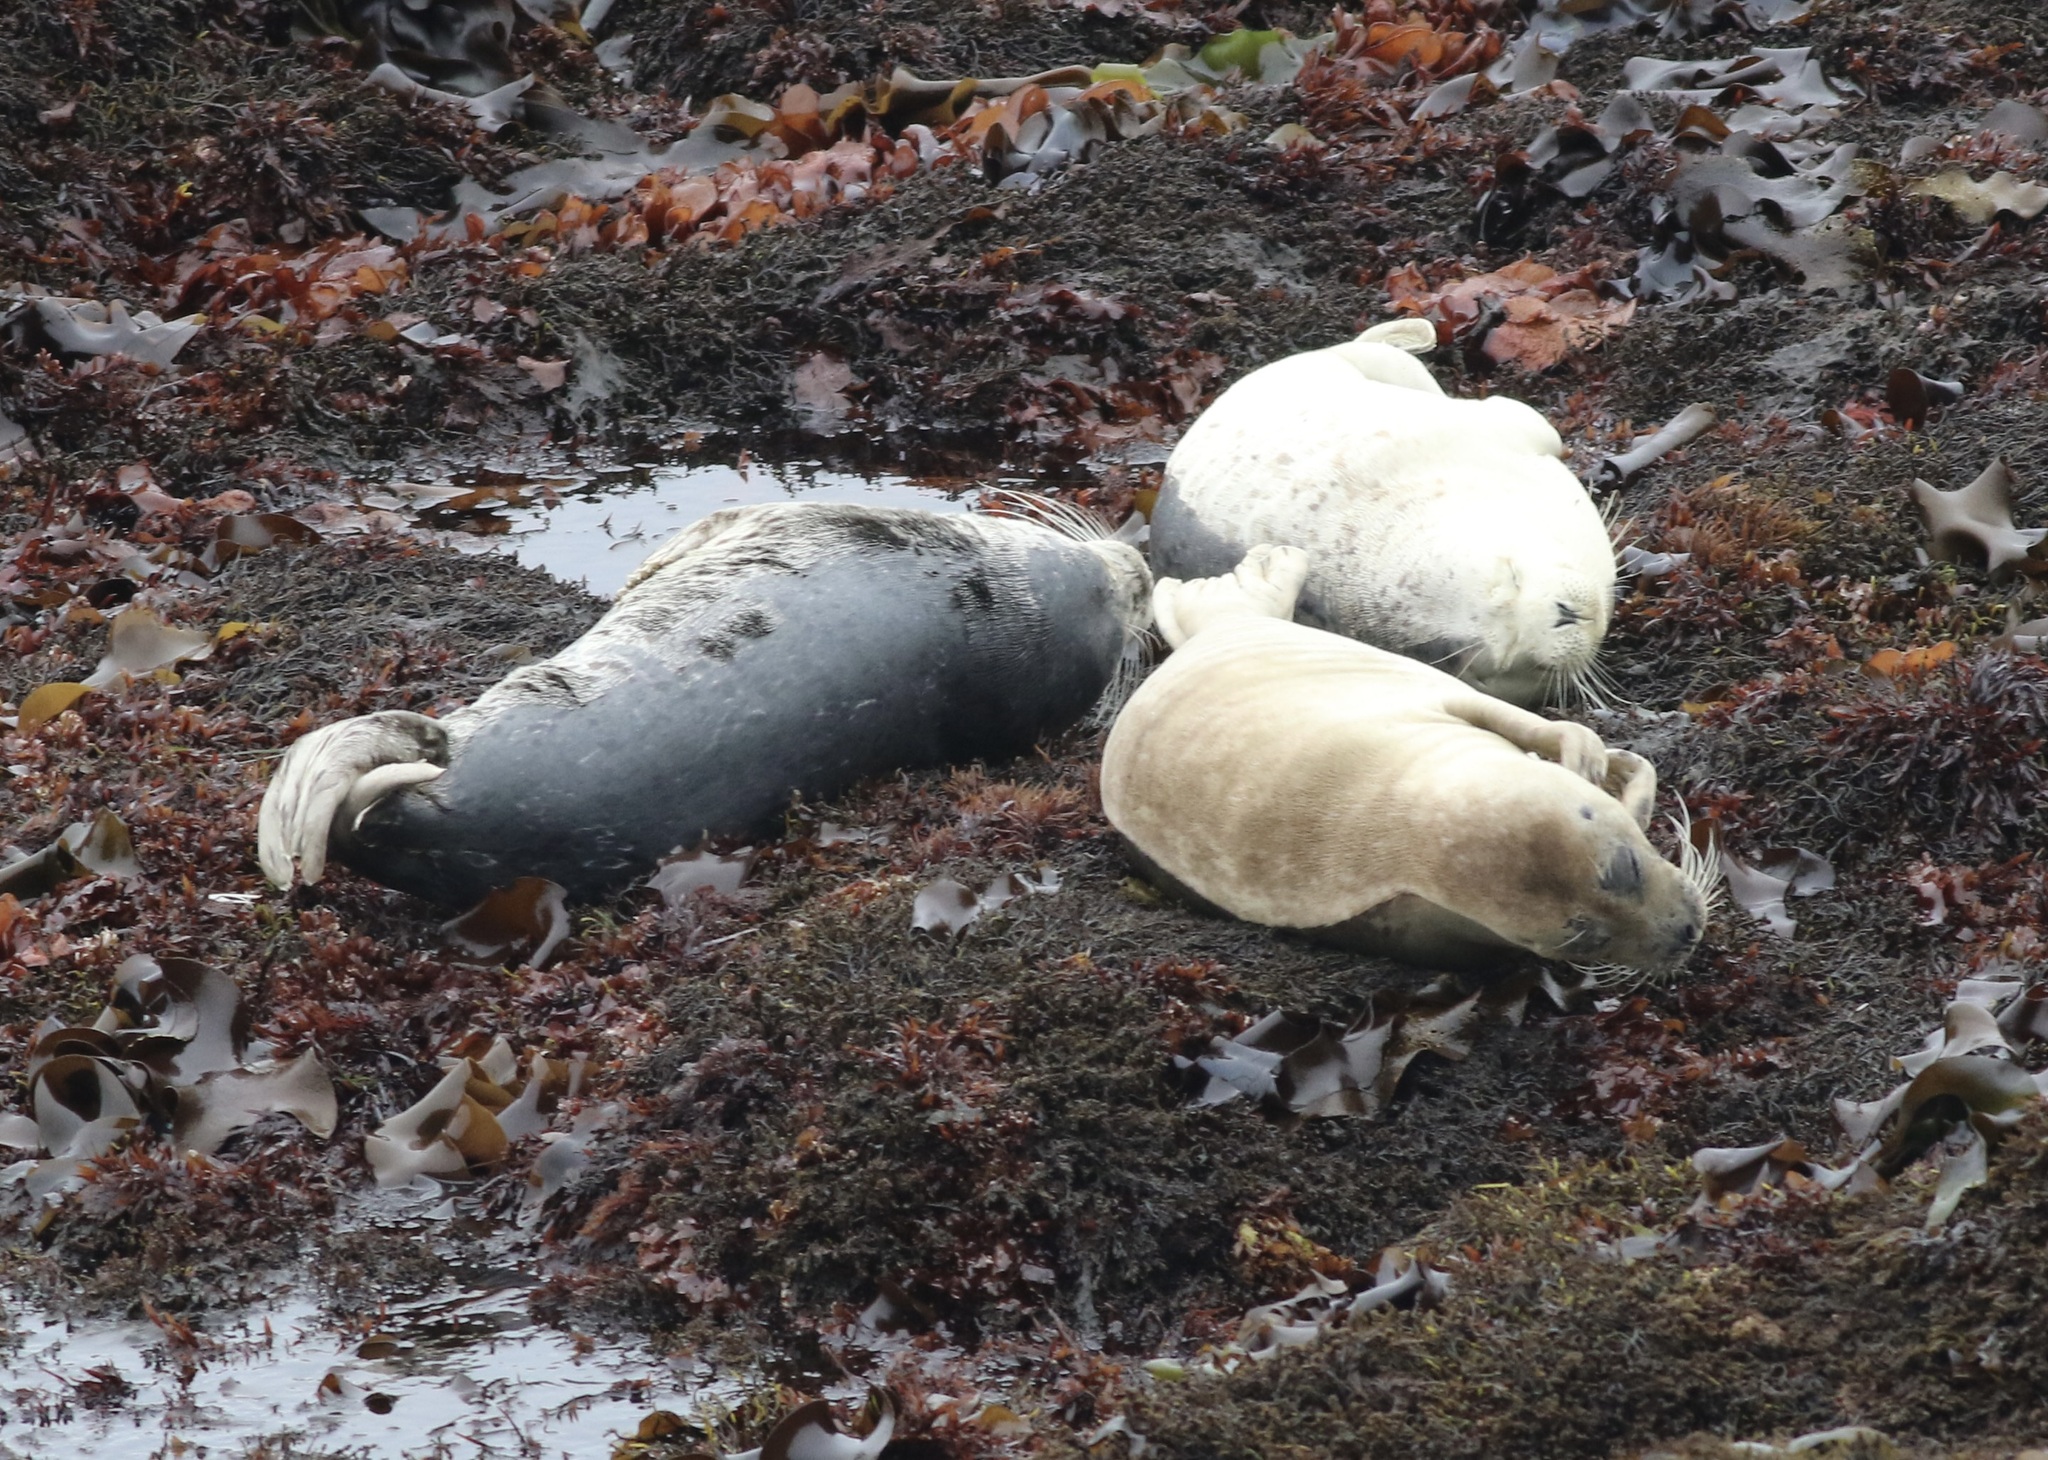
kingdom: Animalia
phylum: Chordata
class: Mammalia
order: Carnivora
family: Phocidae
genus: Phoca
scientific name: Phoca vitulina
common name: Harbor seal
